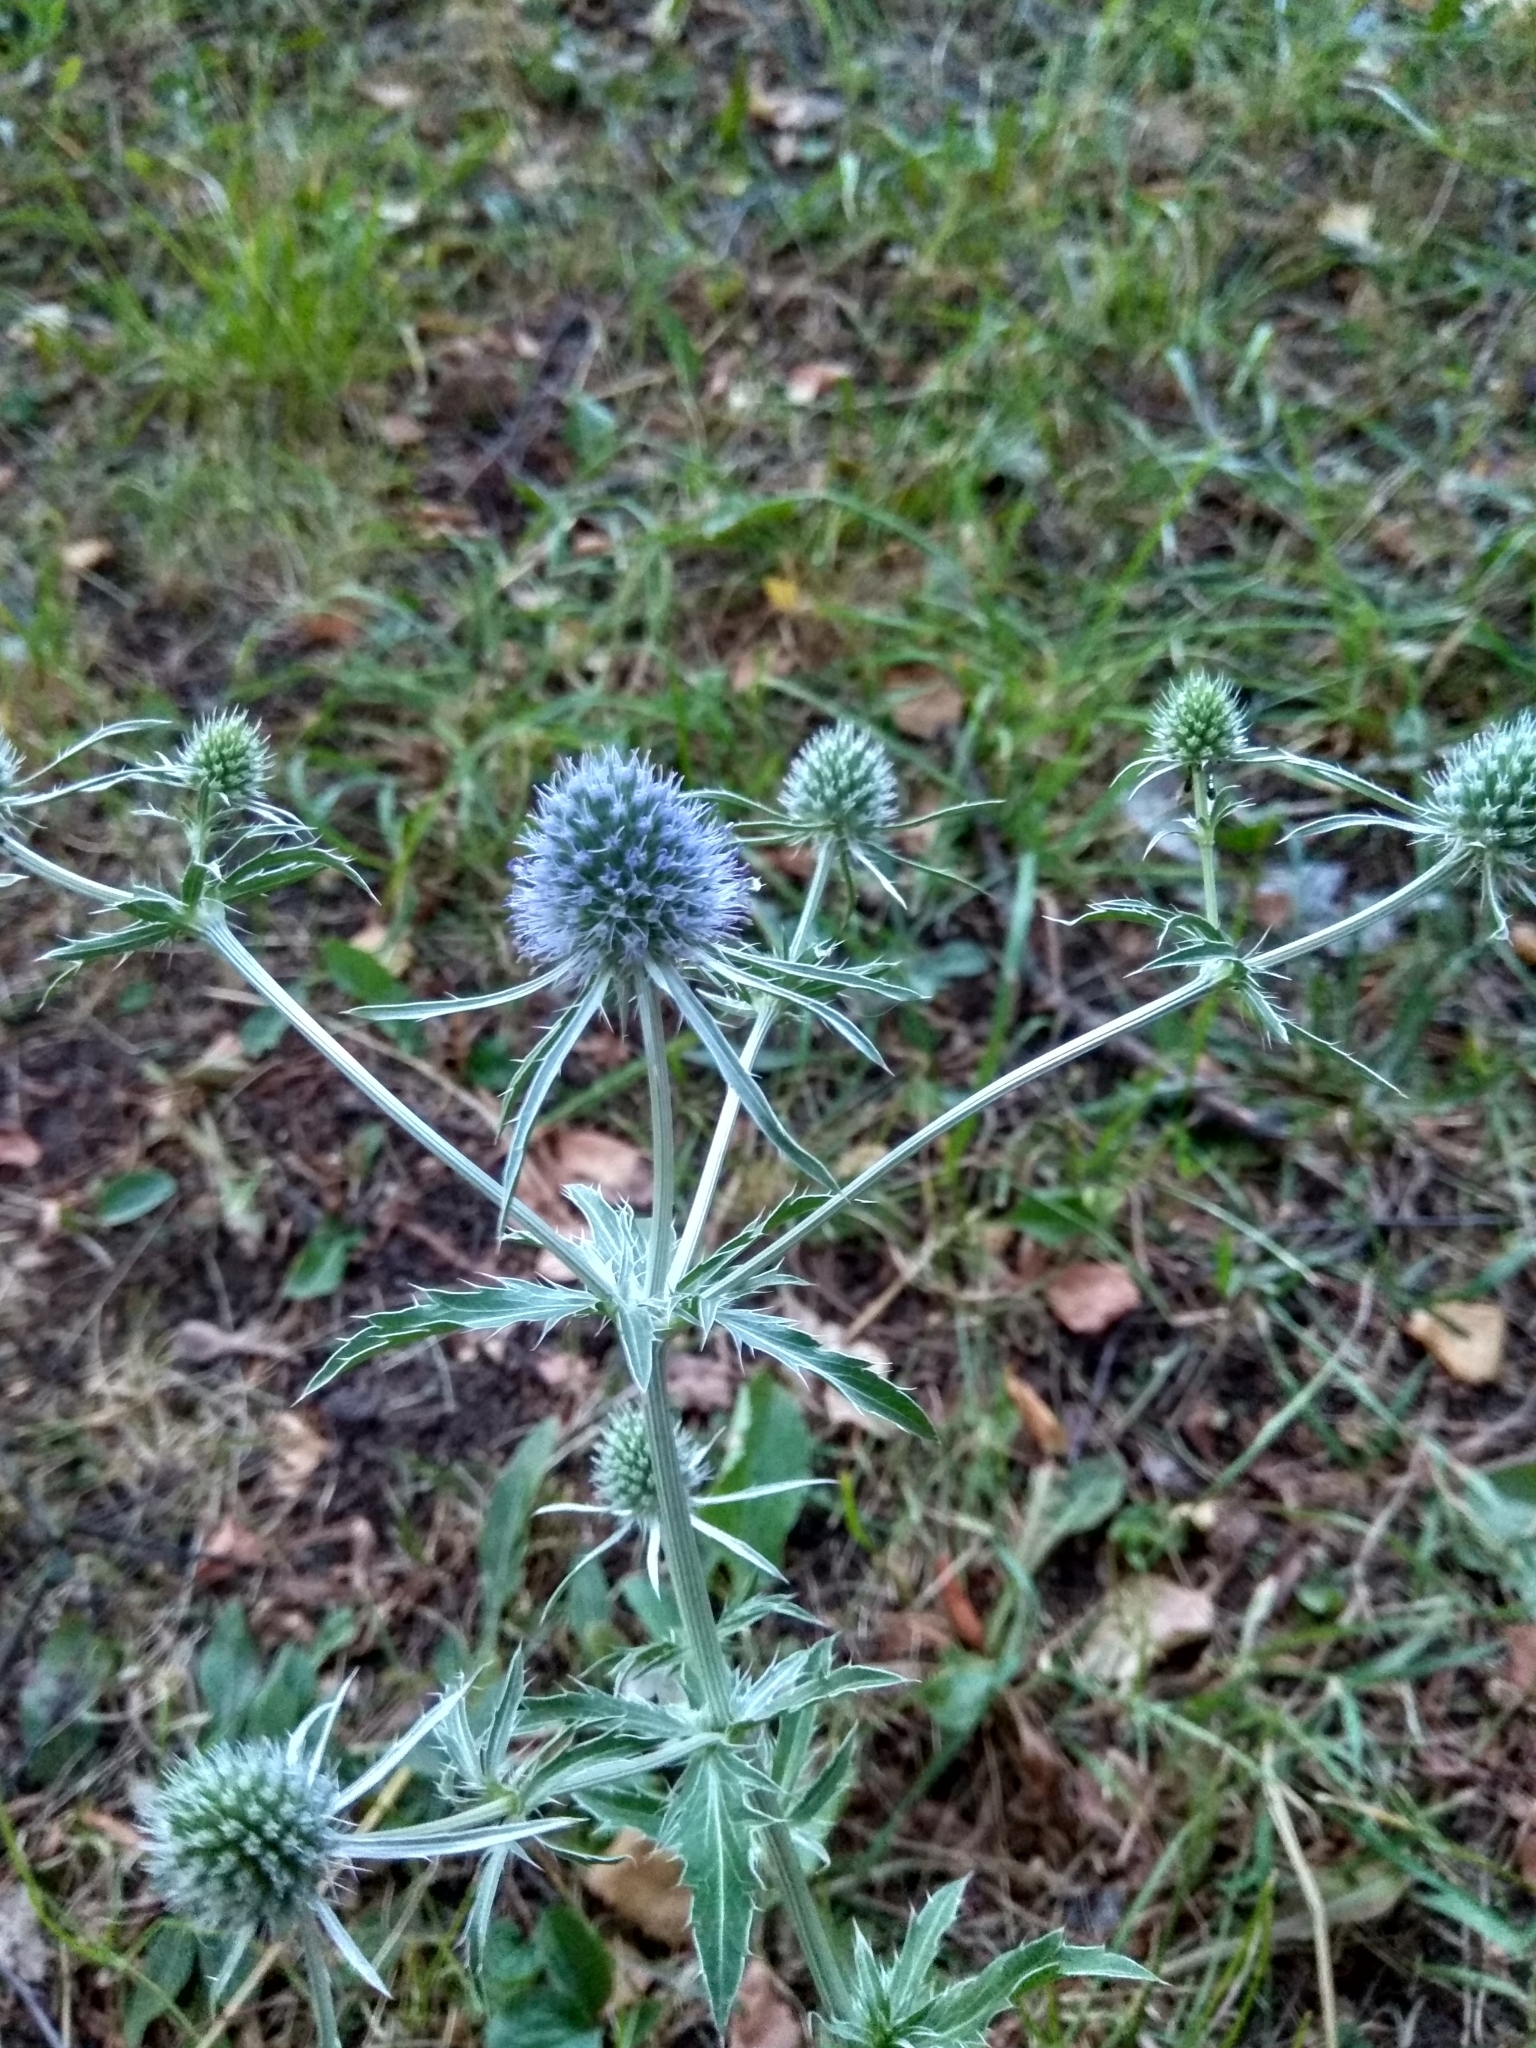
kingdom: Plantae
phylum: Tracheophyta
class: Magnoliopsida
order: Apiales
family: Apiaceae
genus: Eryngium
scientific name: Eryngium planum
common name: Blue eryngo
